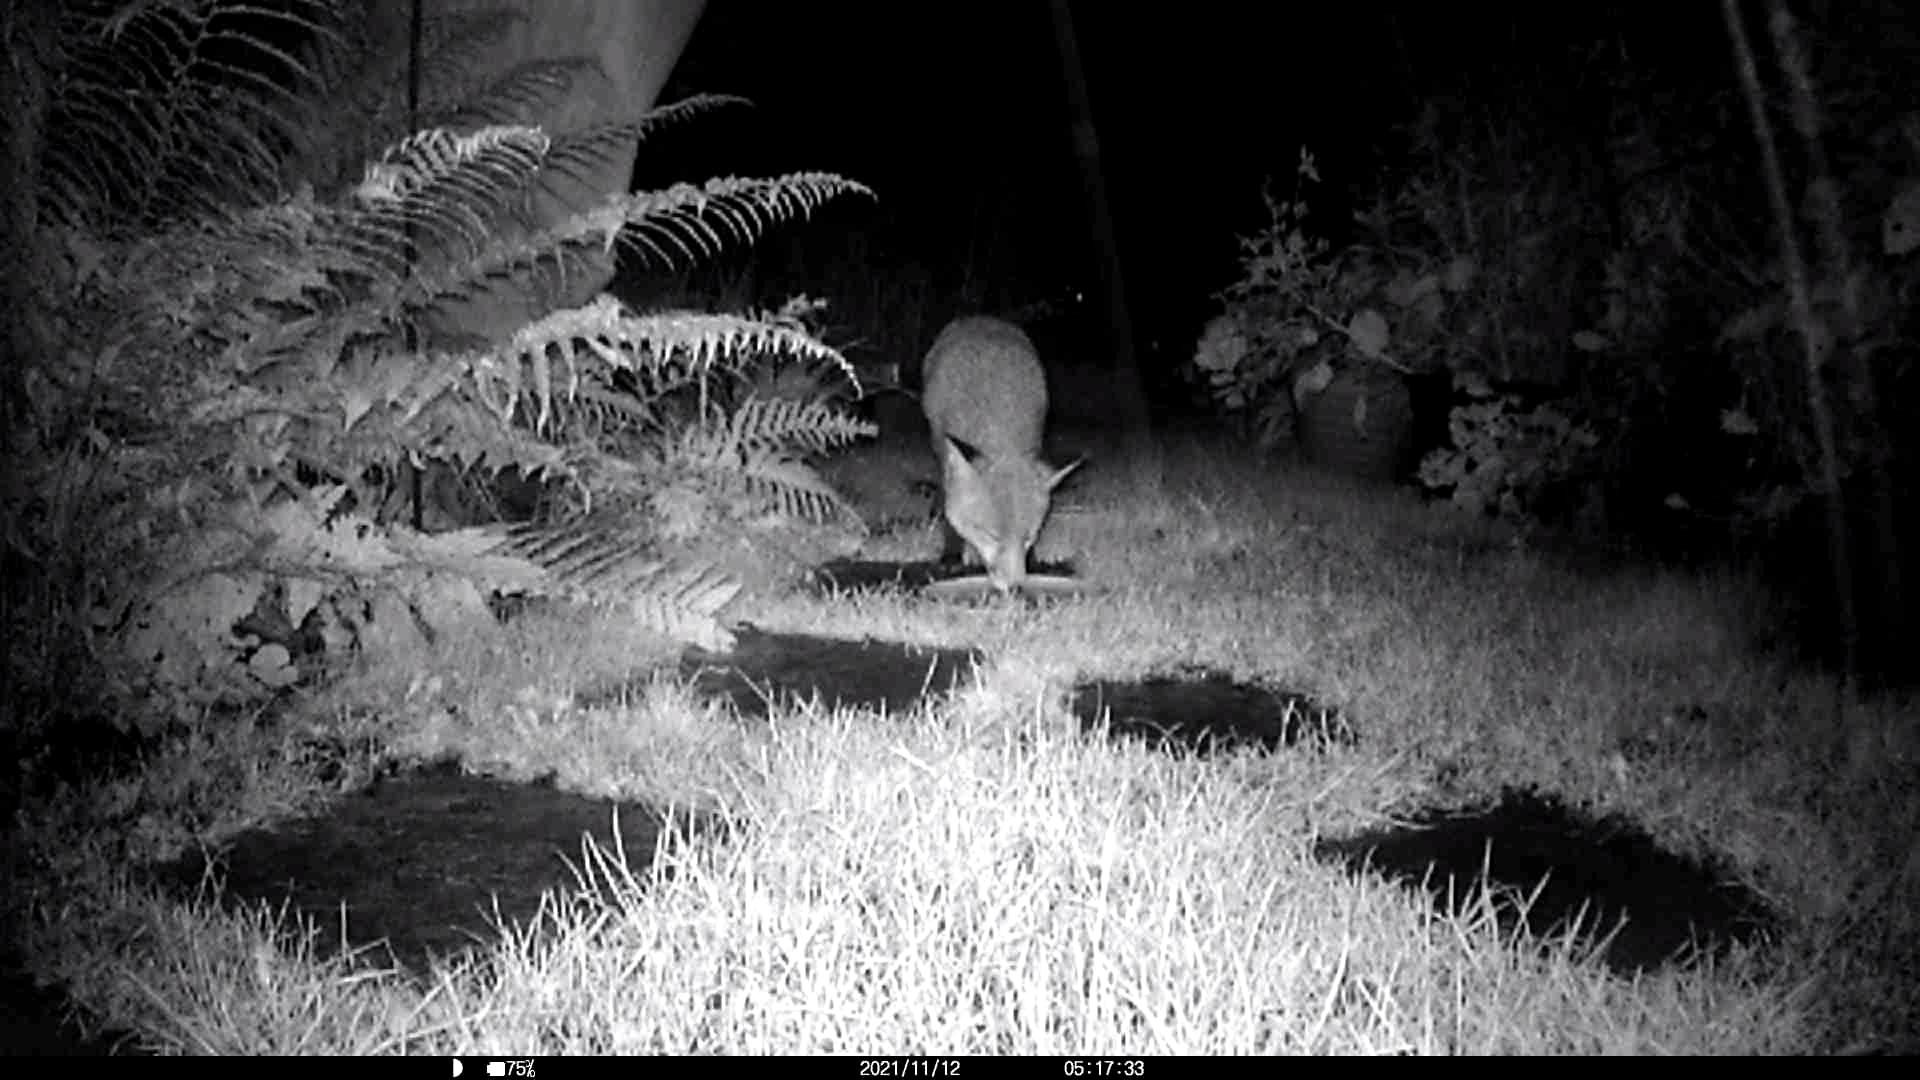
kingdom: Animalia
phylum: Chordata
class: Mammalia
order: Carnivora
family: Canidae
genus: Vulpes
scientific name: Vulpes vulpes
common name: Red fox
